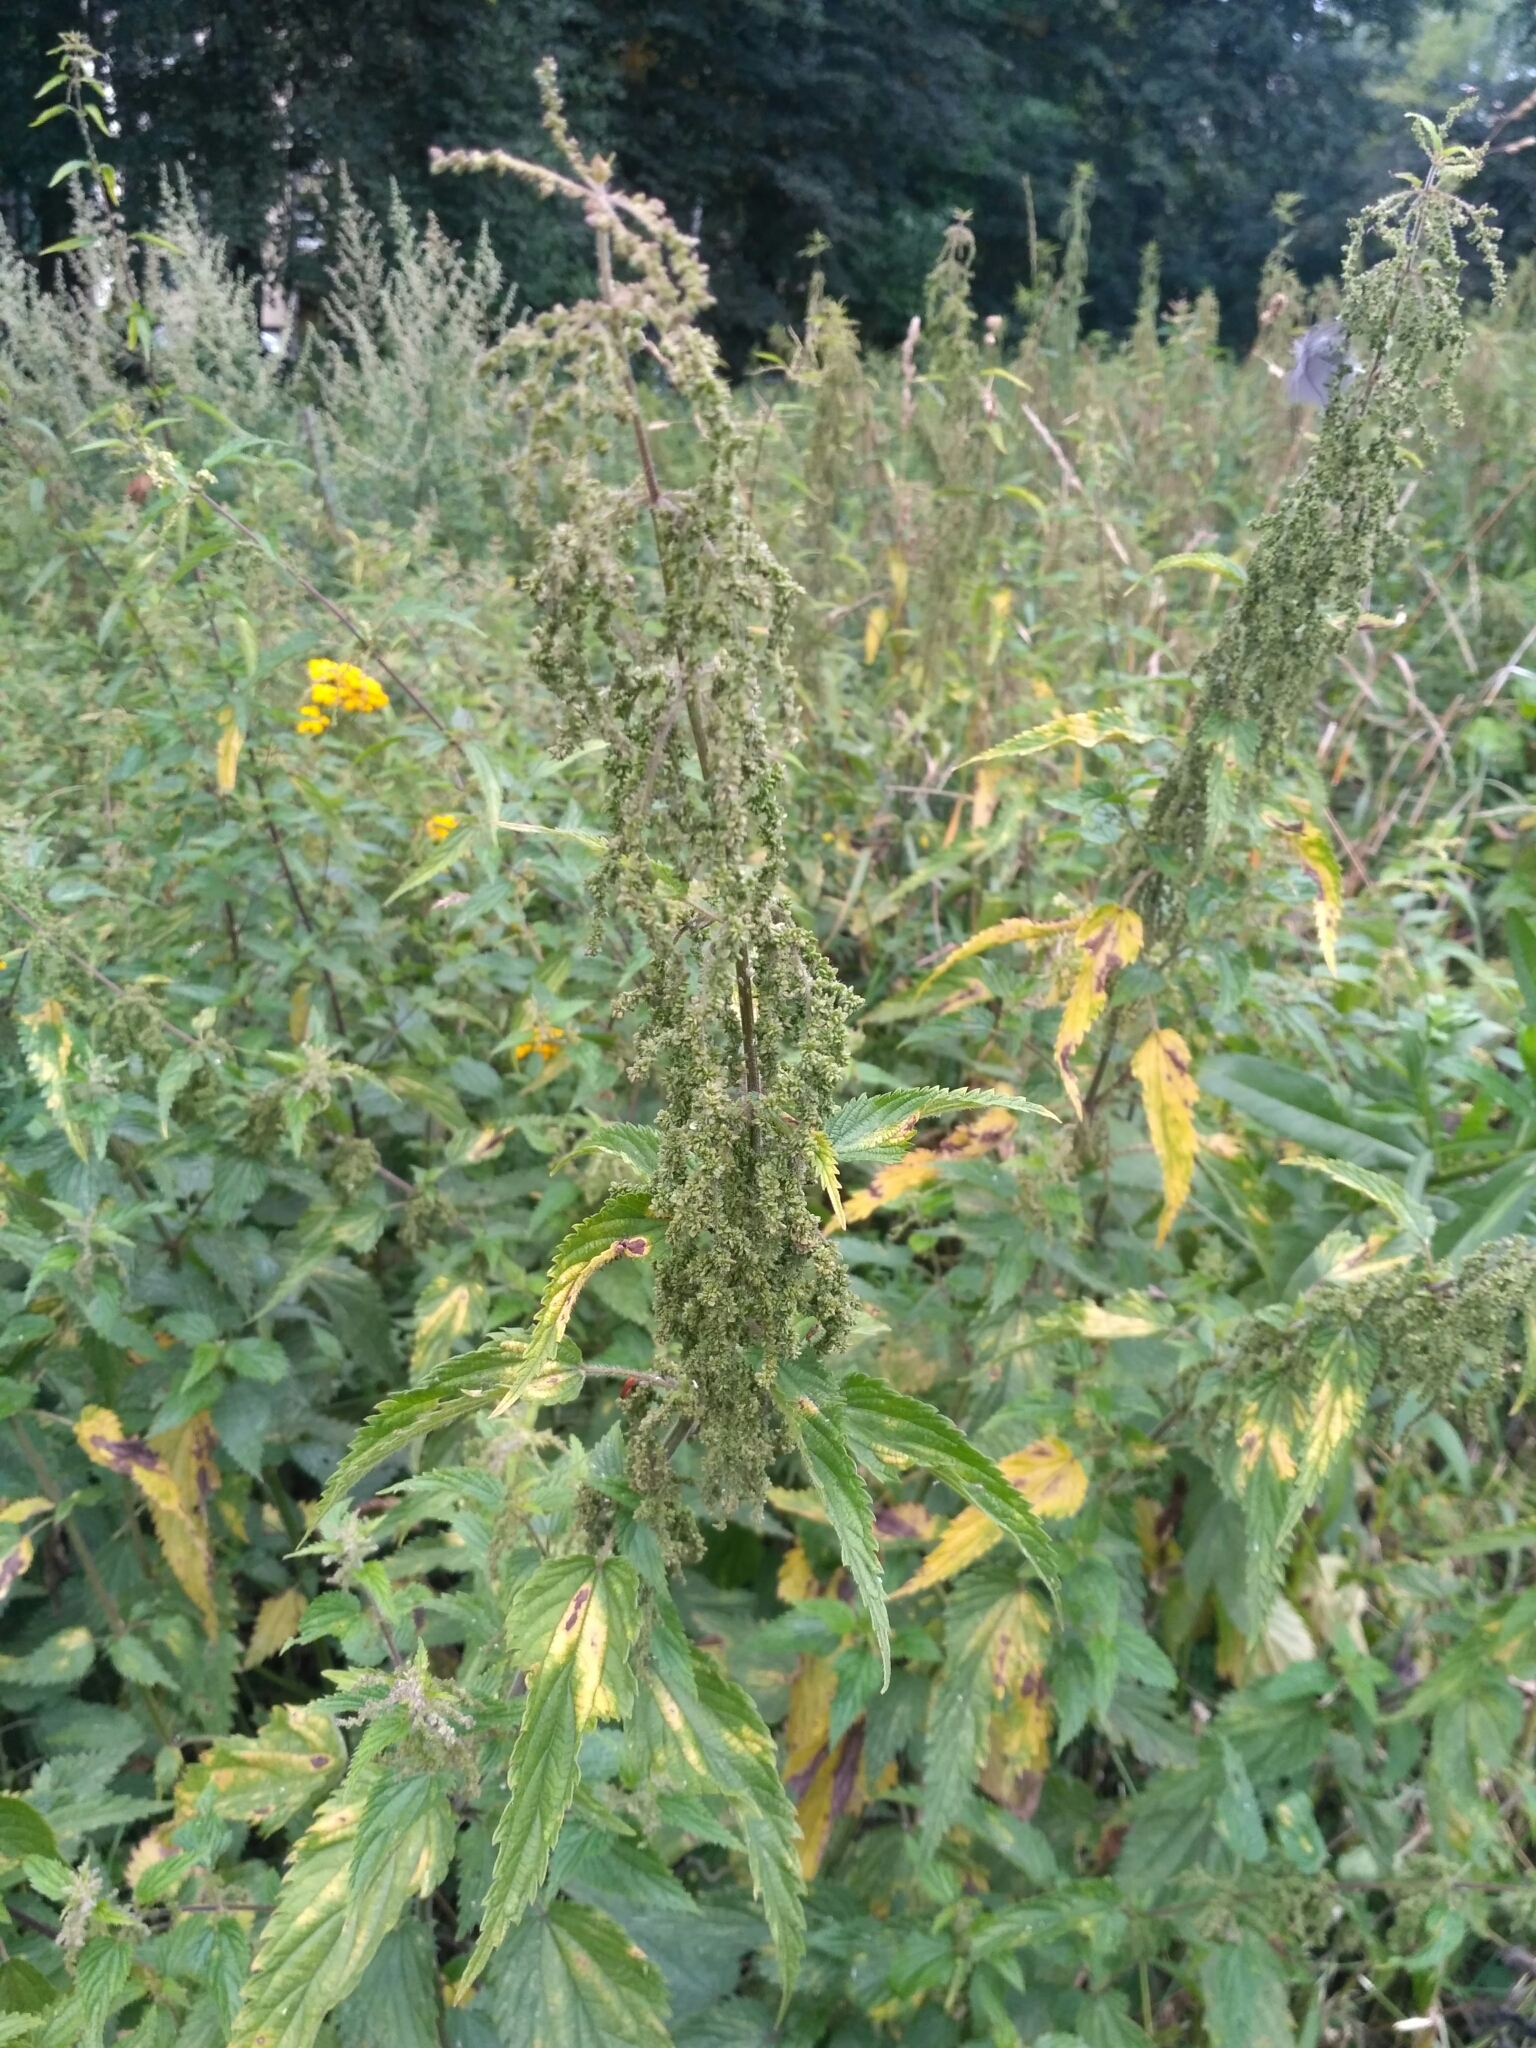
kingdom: Plantae
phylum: Tracheophyta
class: Magnoliopsida
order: Rosales
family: Urticaceae
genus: Urtica
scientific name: Urtica dioica
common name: Common nettle
